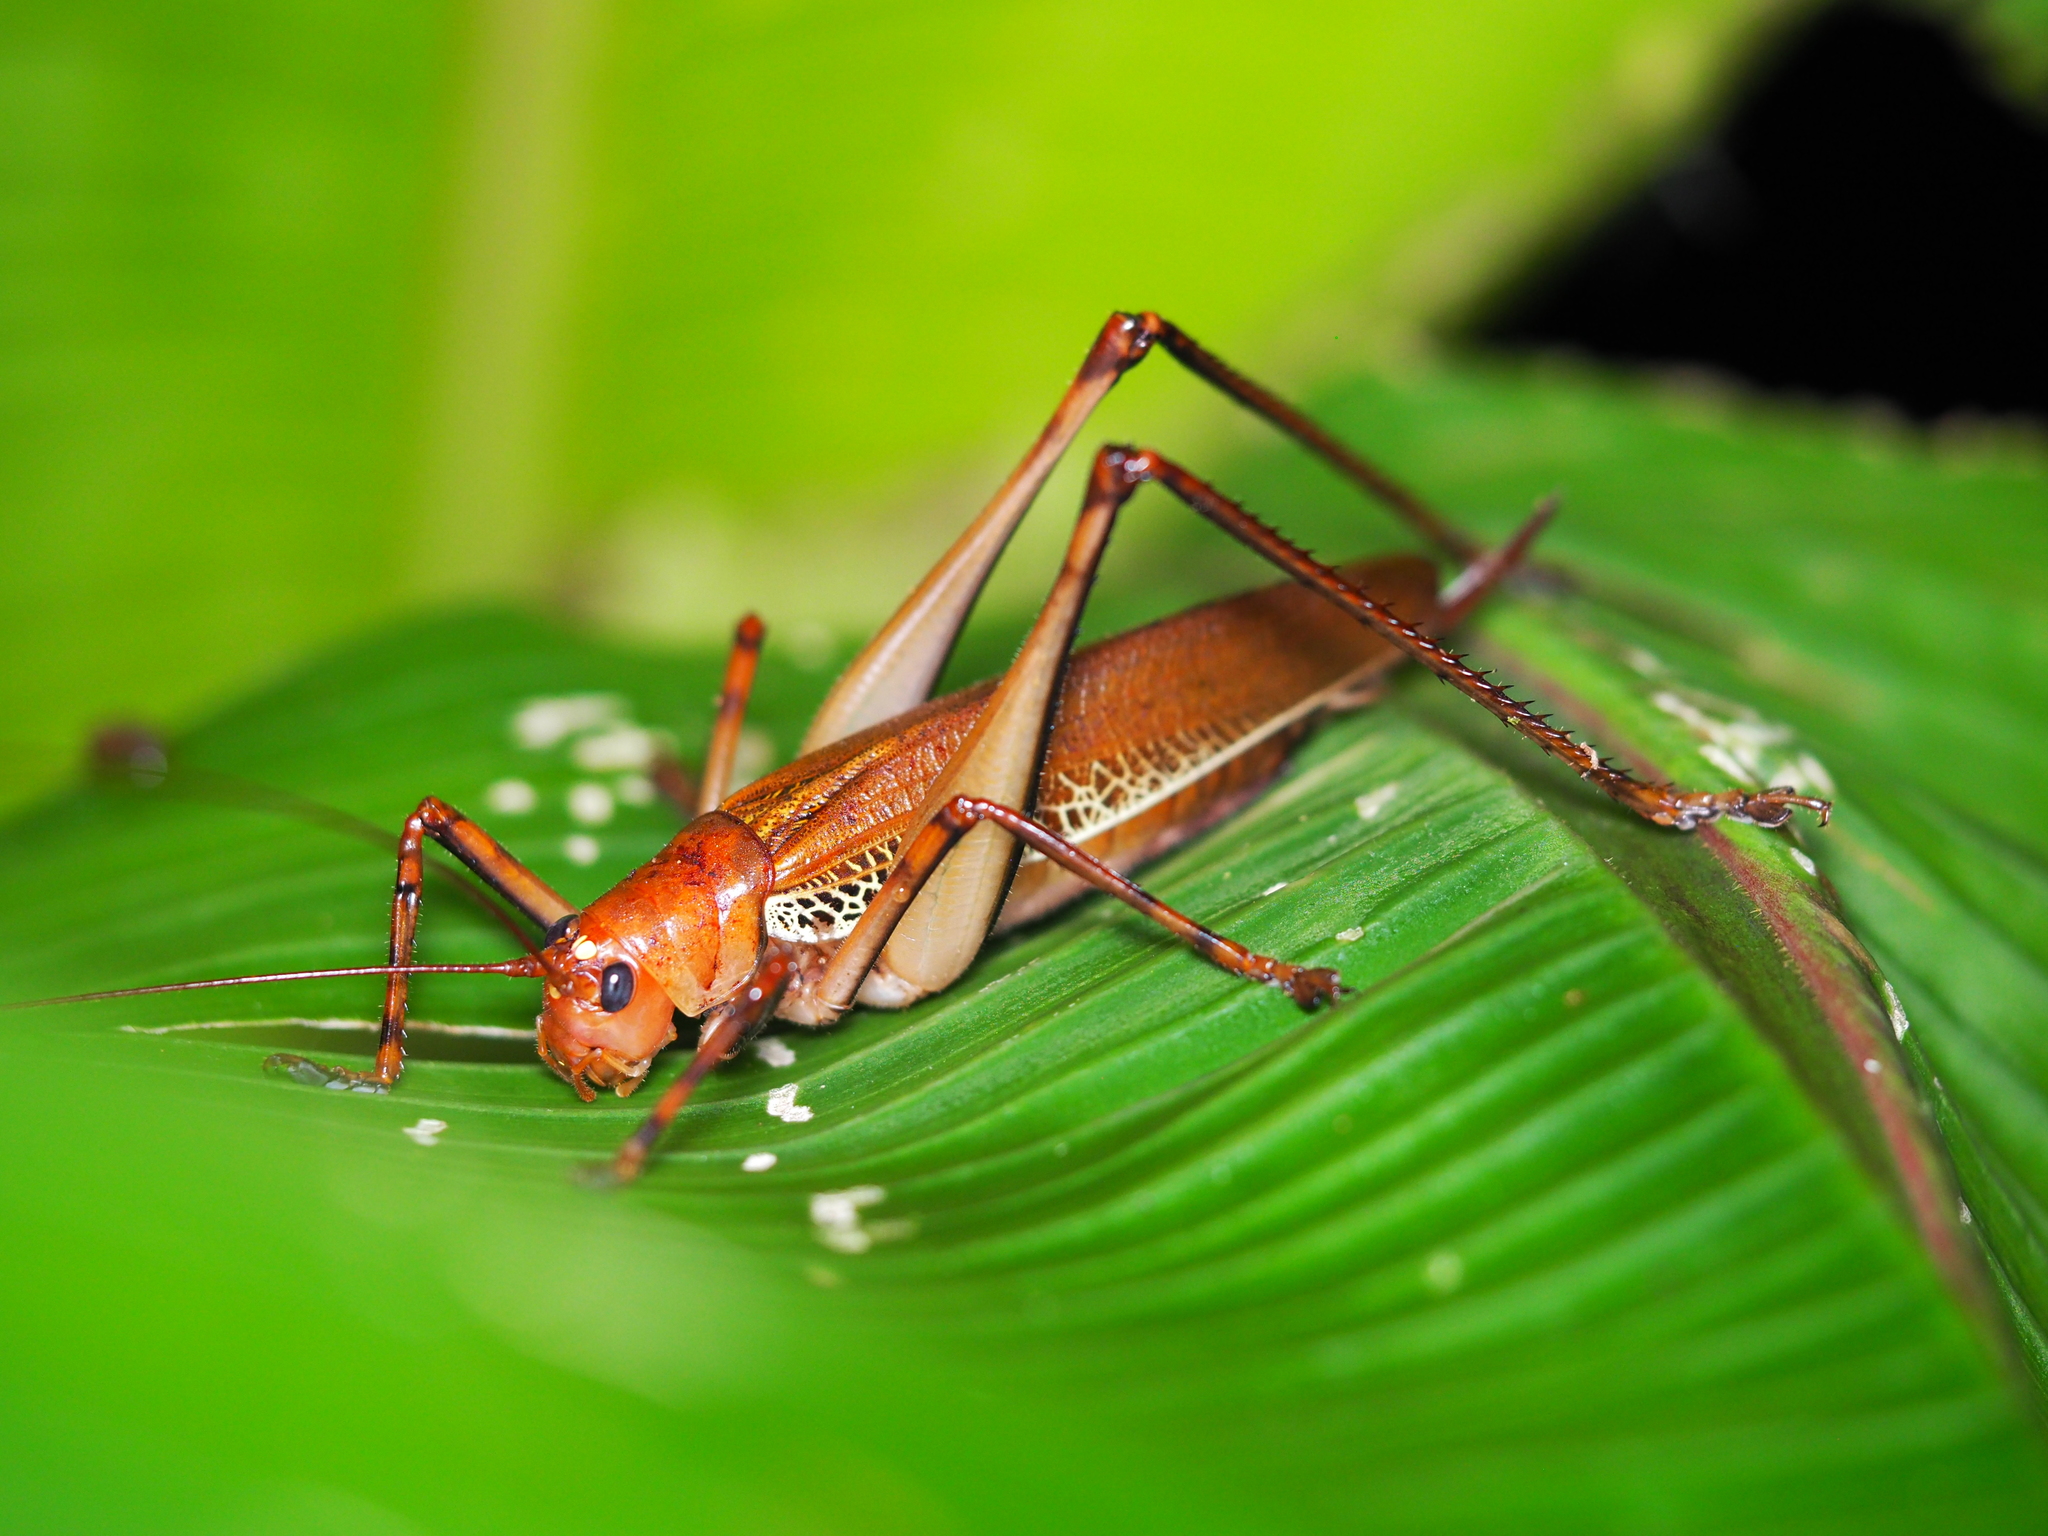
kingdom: Animalia
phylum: Arthropoda
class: Insecta
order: Orthoptera
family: Tettigoniidae
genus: Ischnomela
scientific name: Ischnomela pulchripennis
